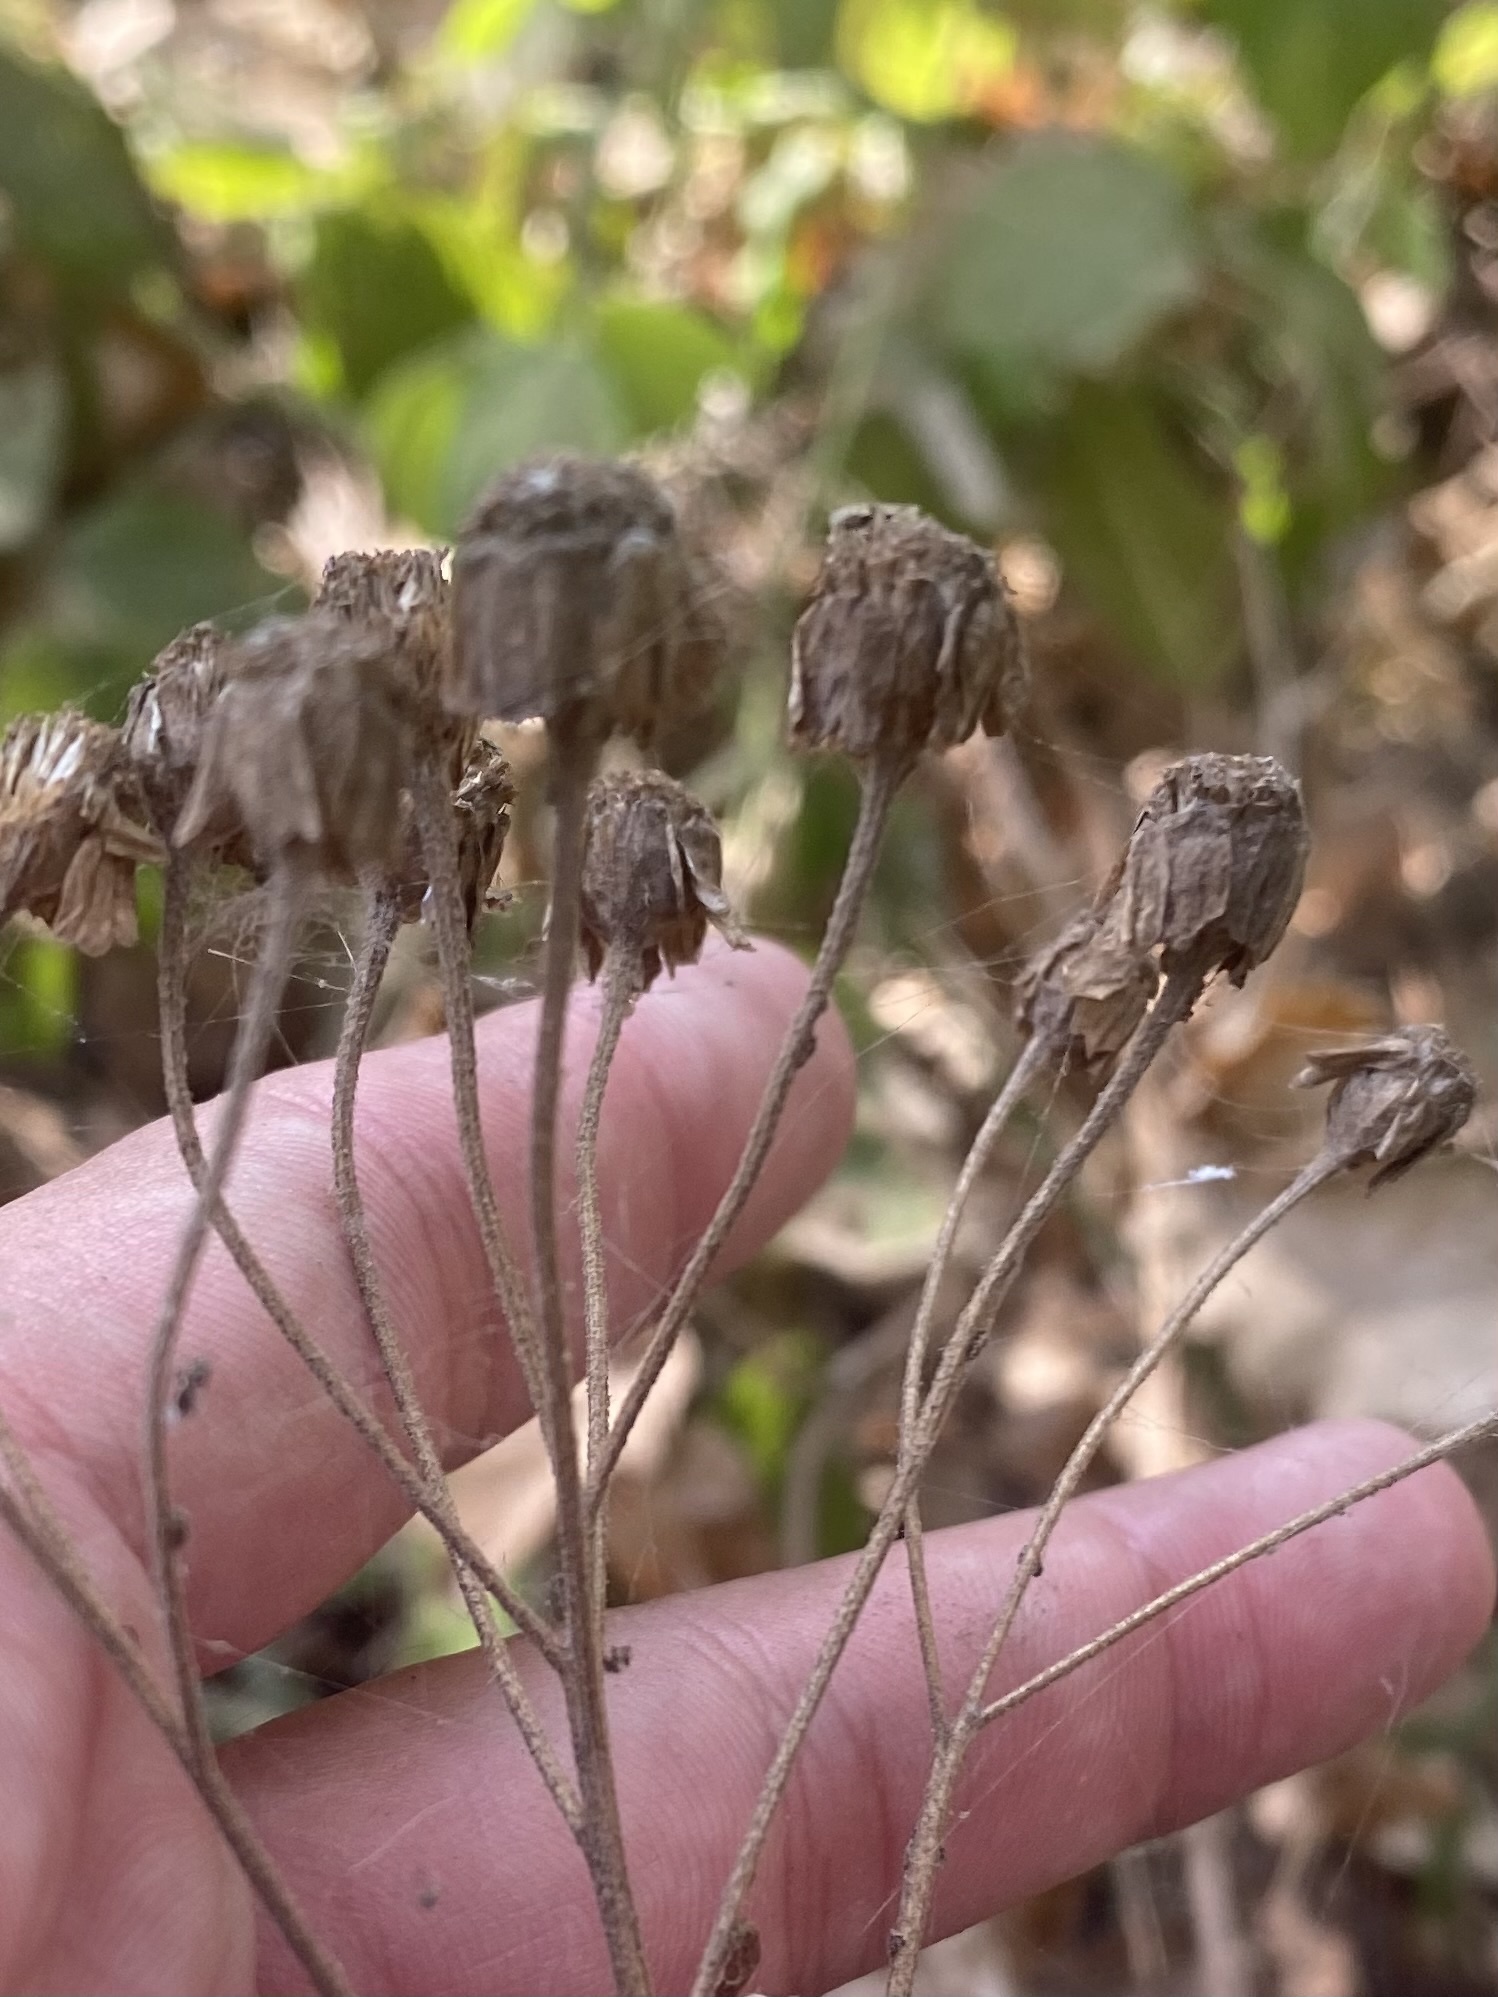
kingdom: Plantae
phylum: Tracheophyta
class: Magnoliopsida
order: Asterales
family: Asteraceae
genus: Achillea
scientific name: Achillea biserrata
